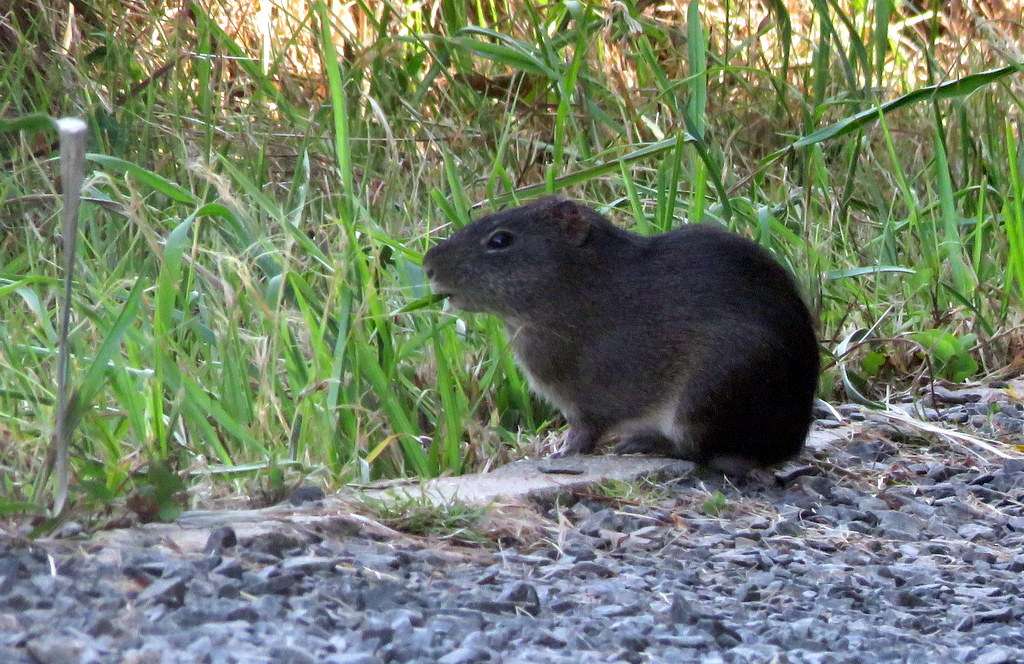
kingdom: Animalia
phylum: Chordata
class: Mammalia
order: Rodentia
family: Caviidae
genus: Cavia
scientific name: Cavia aperea
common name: Brazilian guinea pig
